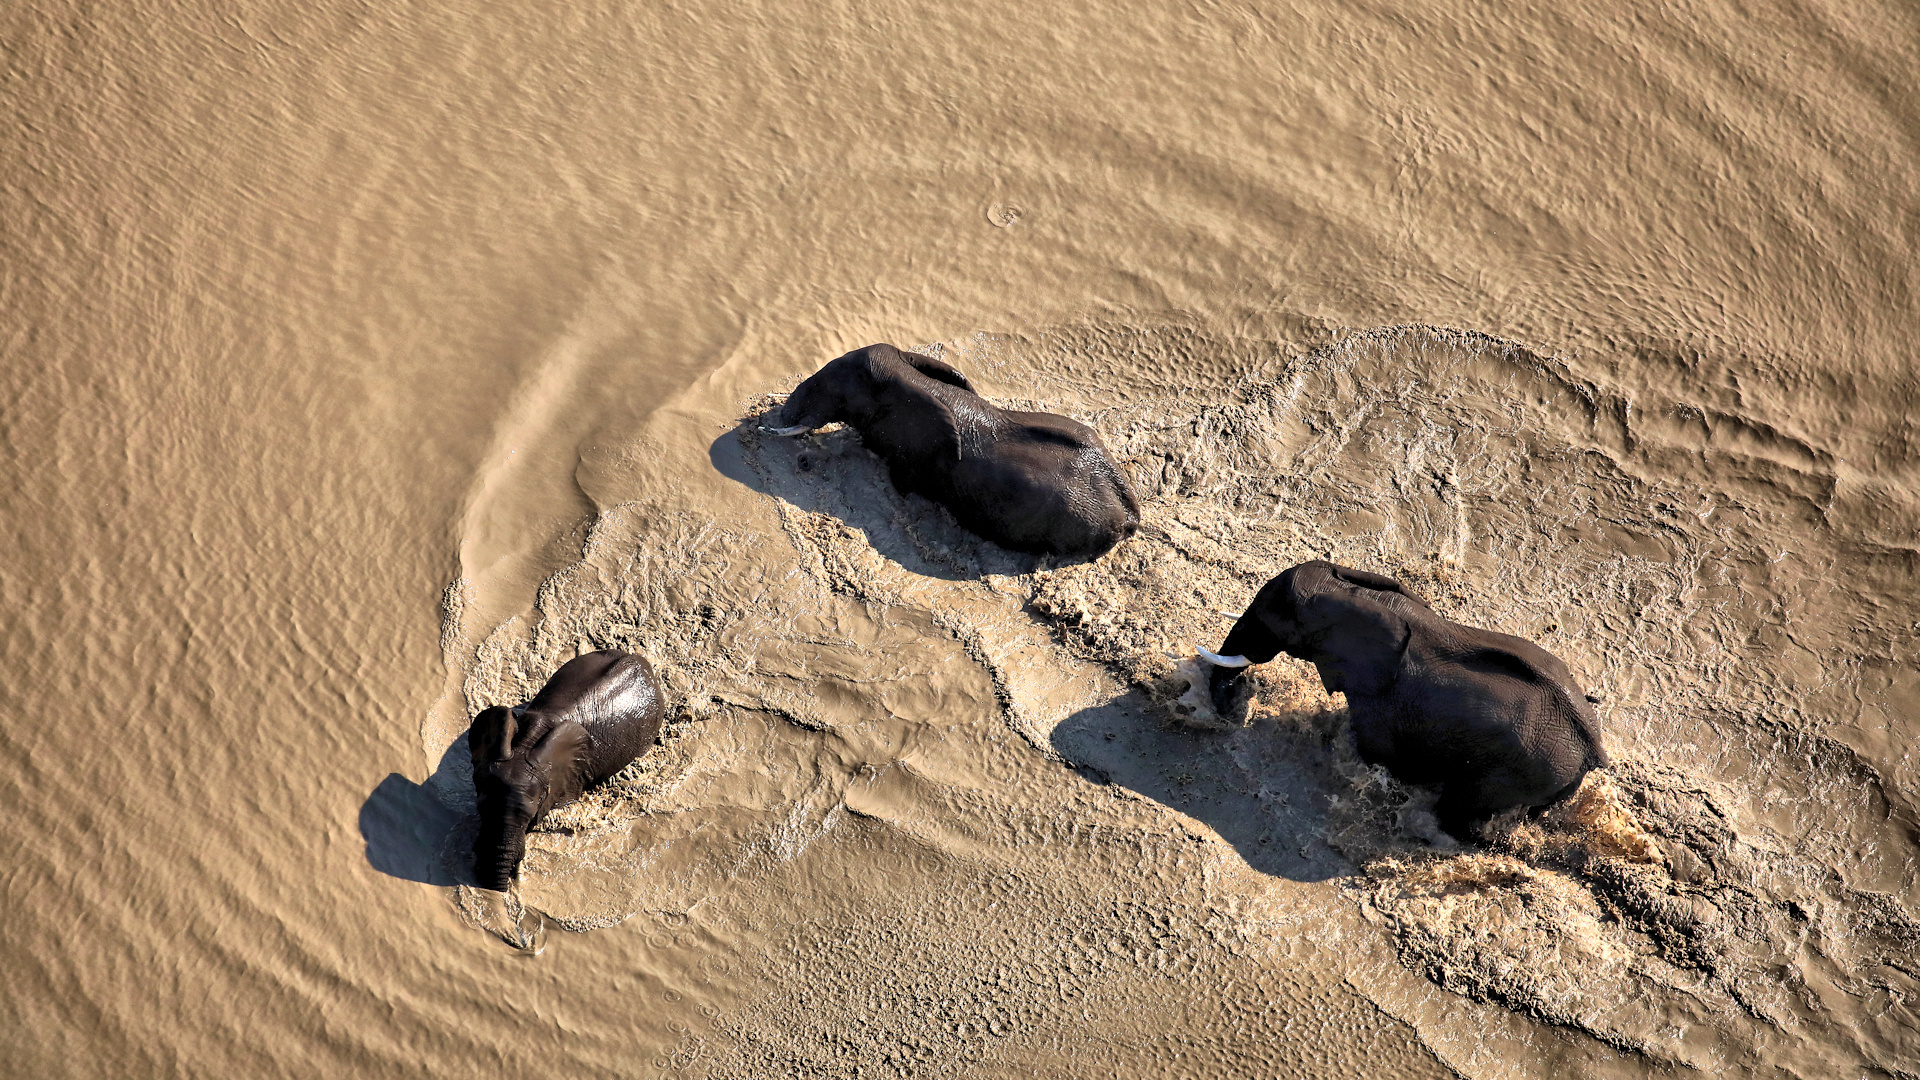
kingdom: Animalia
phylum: Chordata
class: Mammalia
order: Proboscidea
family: Elephantidae
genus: Loxodonta
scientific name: Loxodonta africana
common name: African elephant
